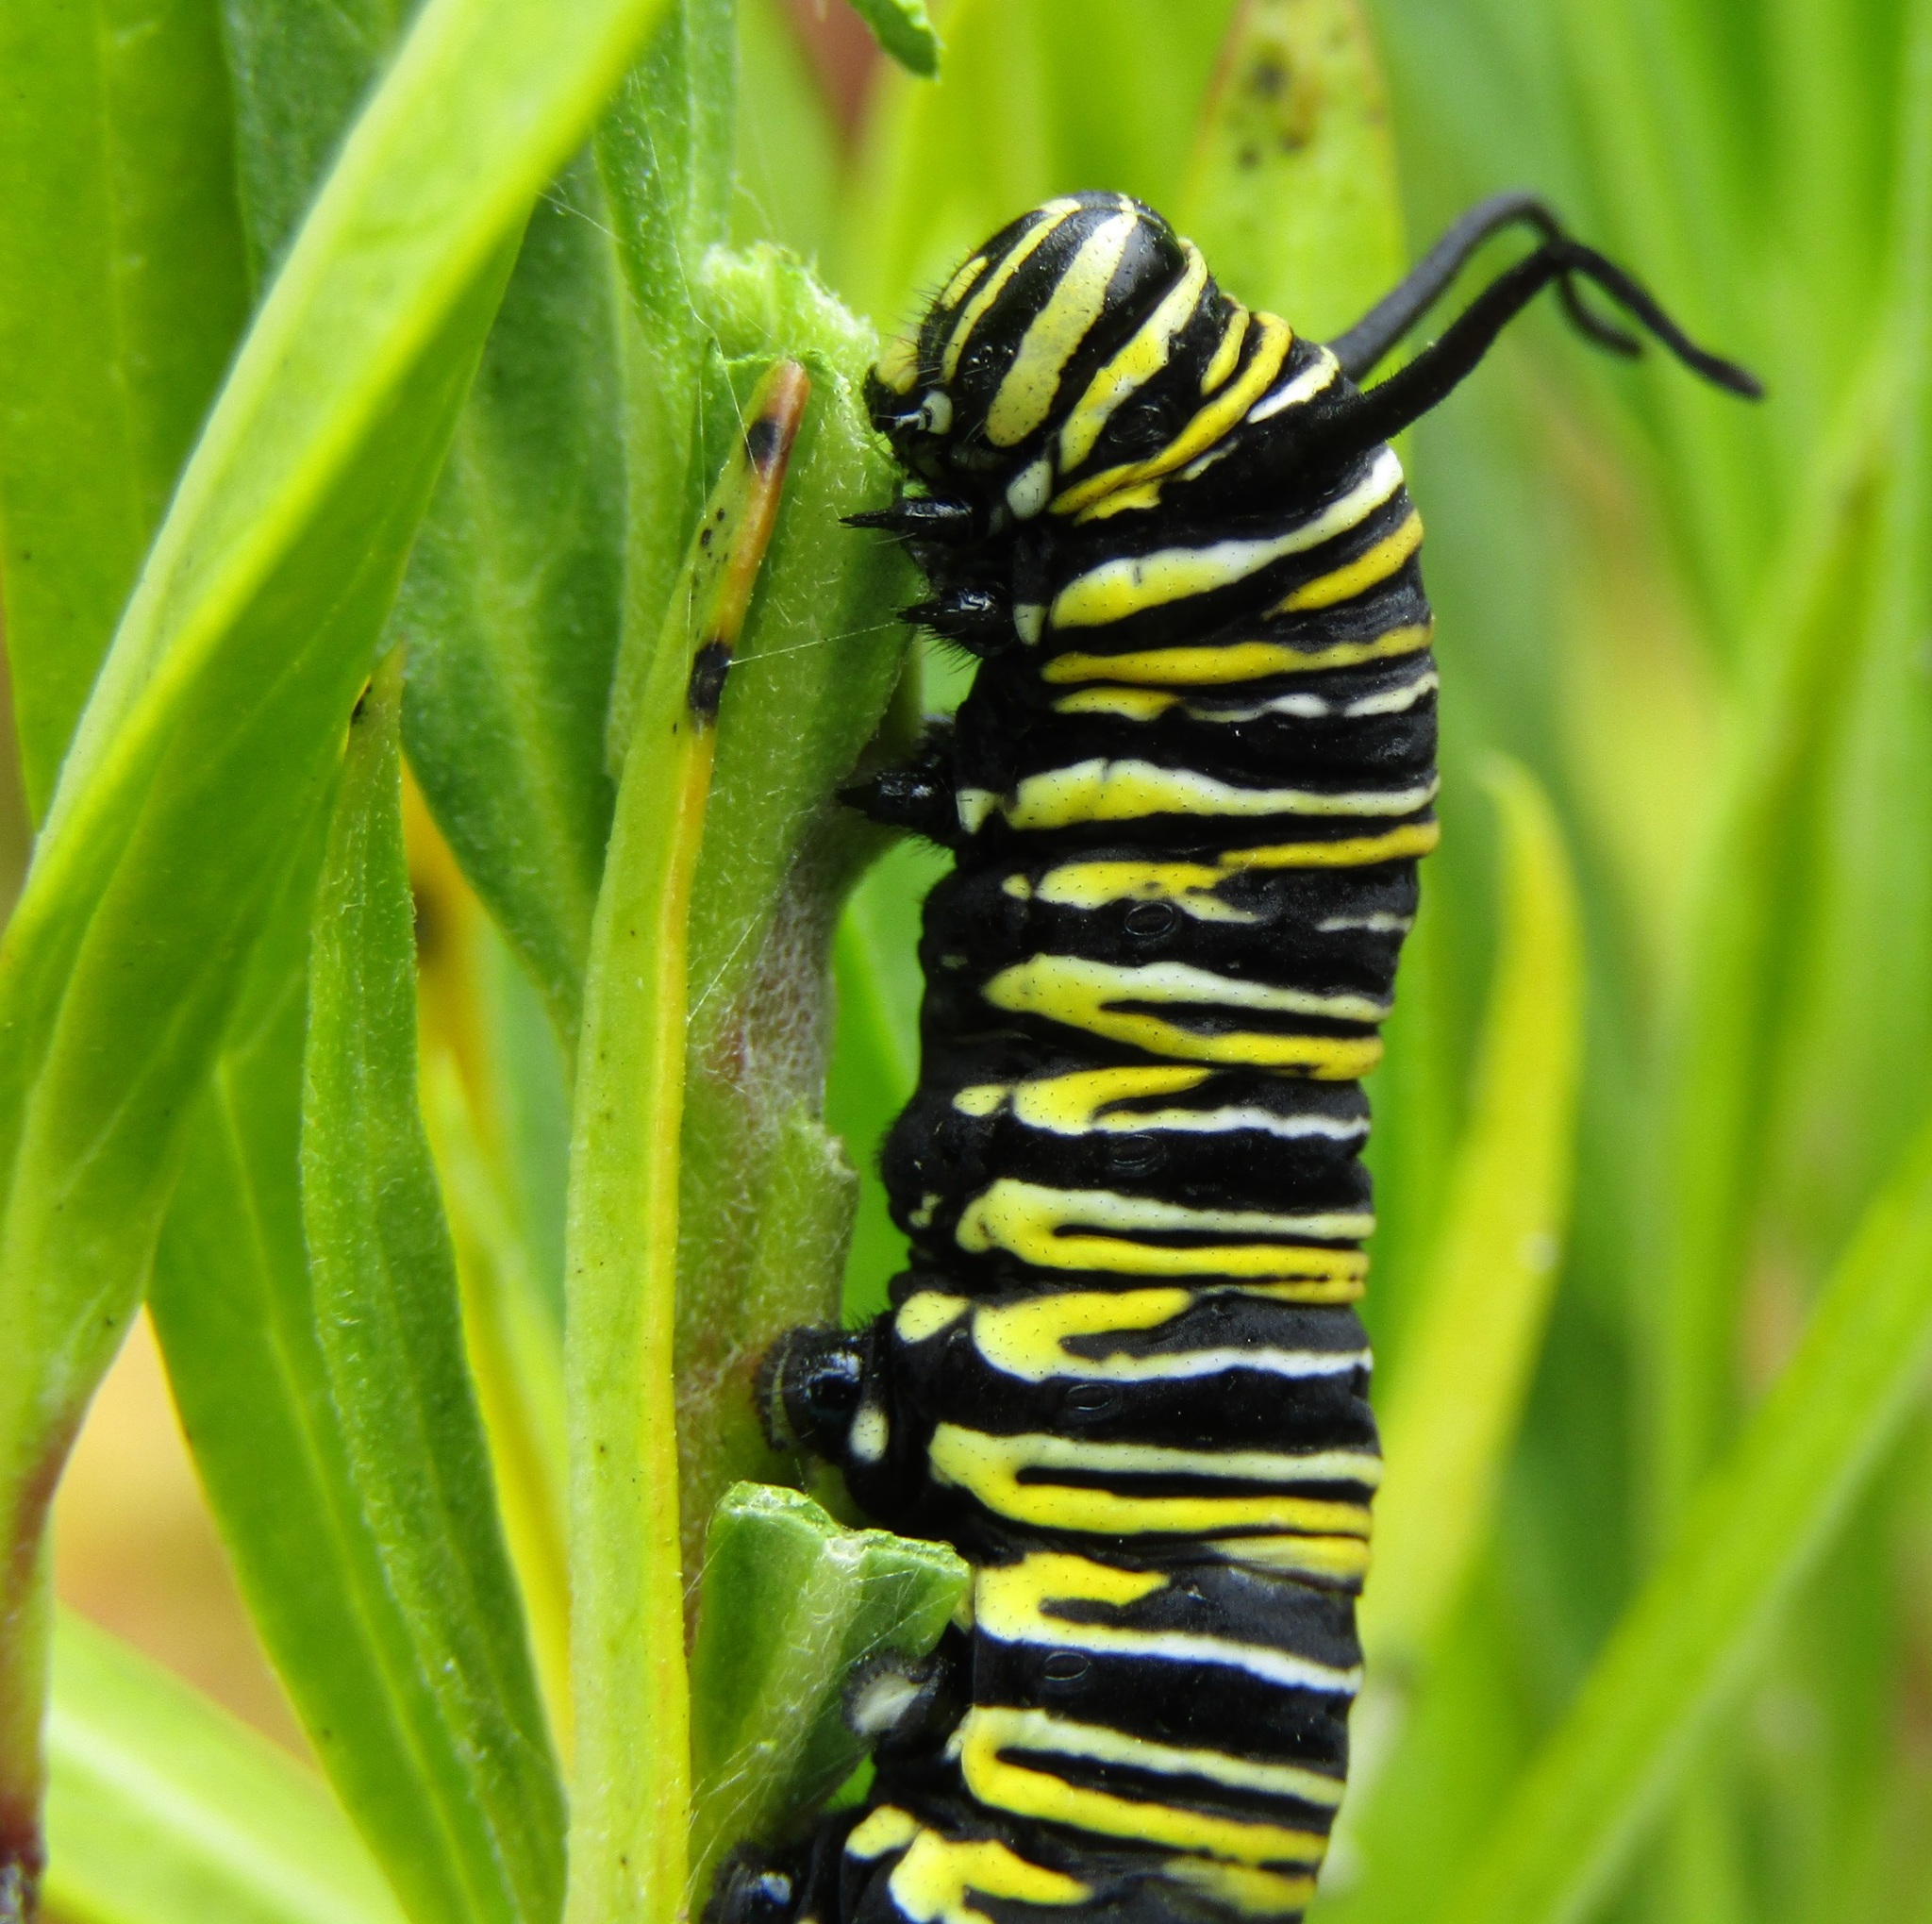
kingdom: Animalia
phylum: Arthropoda
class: Insecta
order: Lepidoptera
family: Nymphalidae
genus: Danaus
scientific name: Danaus plexippus
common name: Monarch
